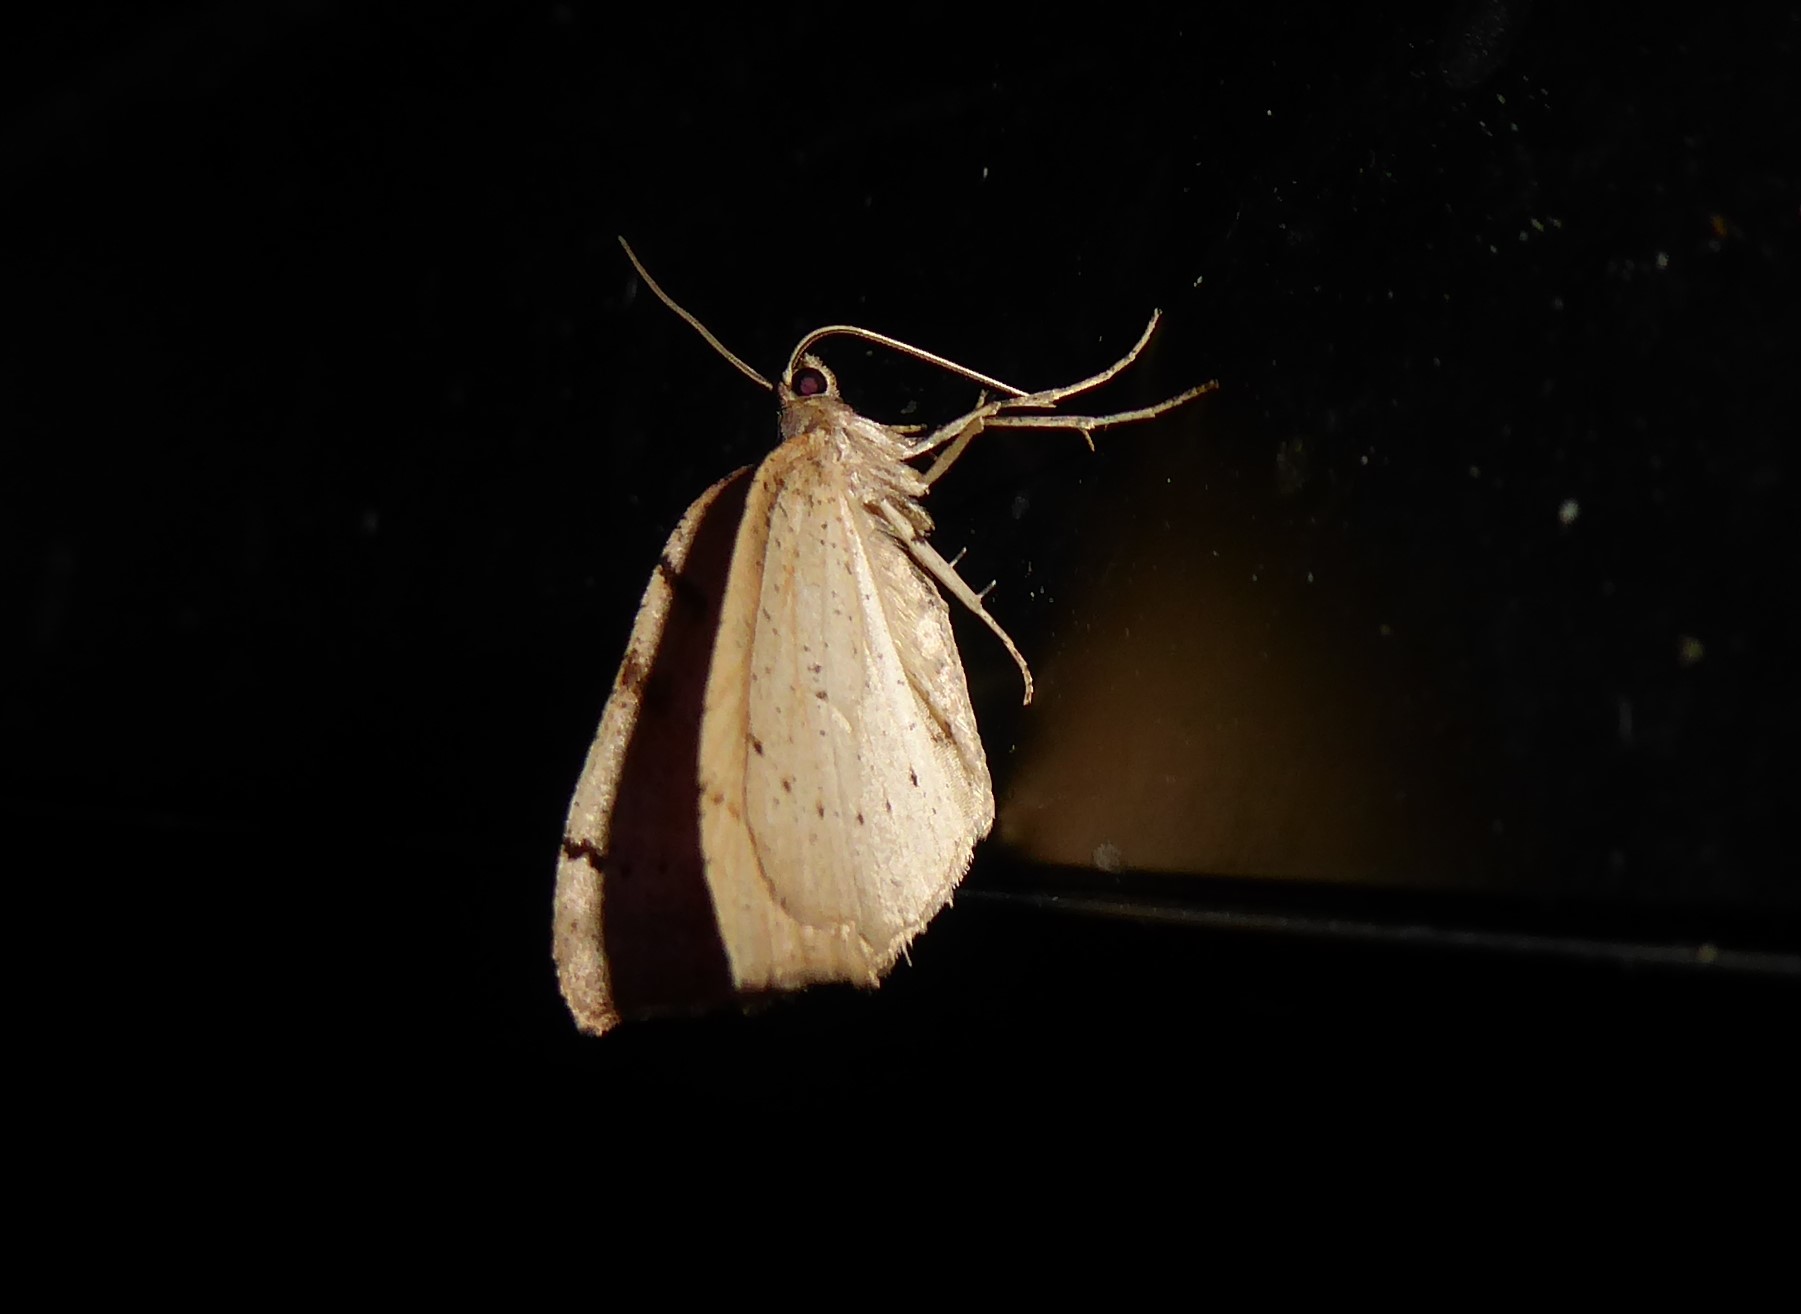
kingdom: Animalia
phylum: Arthropoda
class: Insecta
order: Lepidoptera
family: Geometridae
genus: Sestra
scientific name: Sestra humeraria
